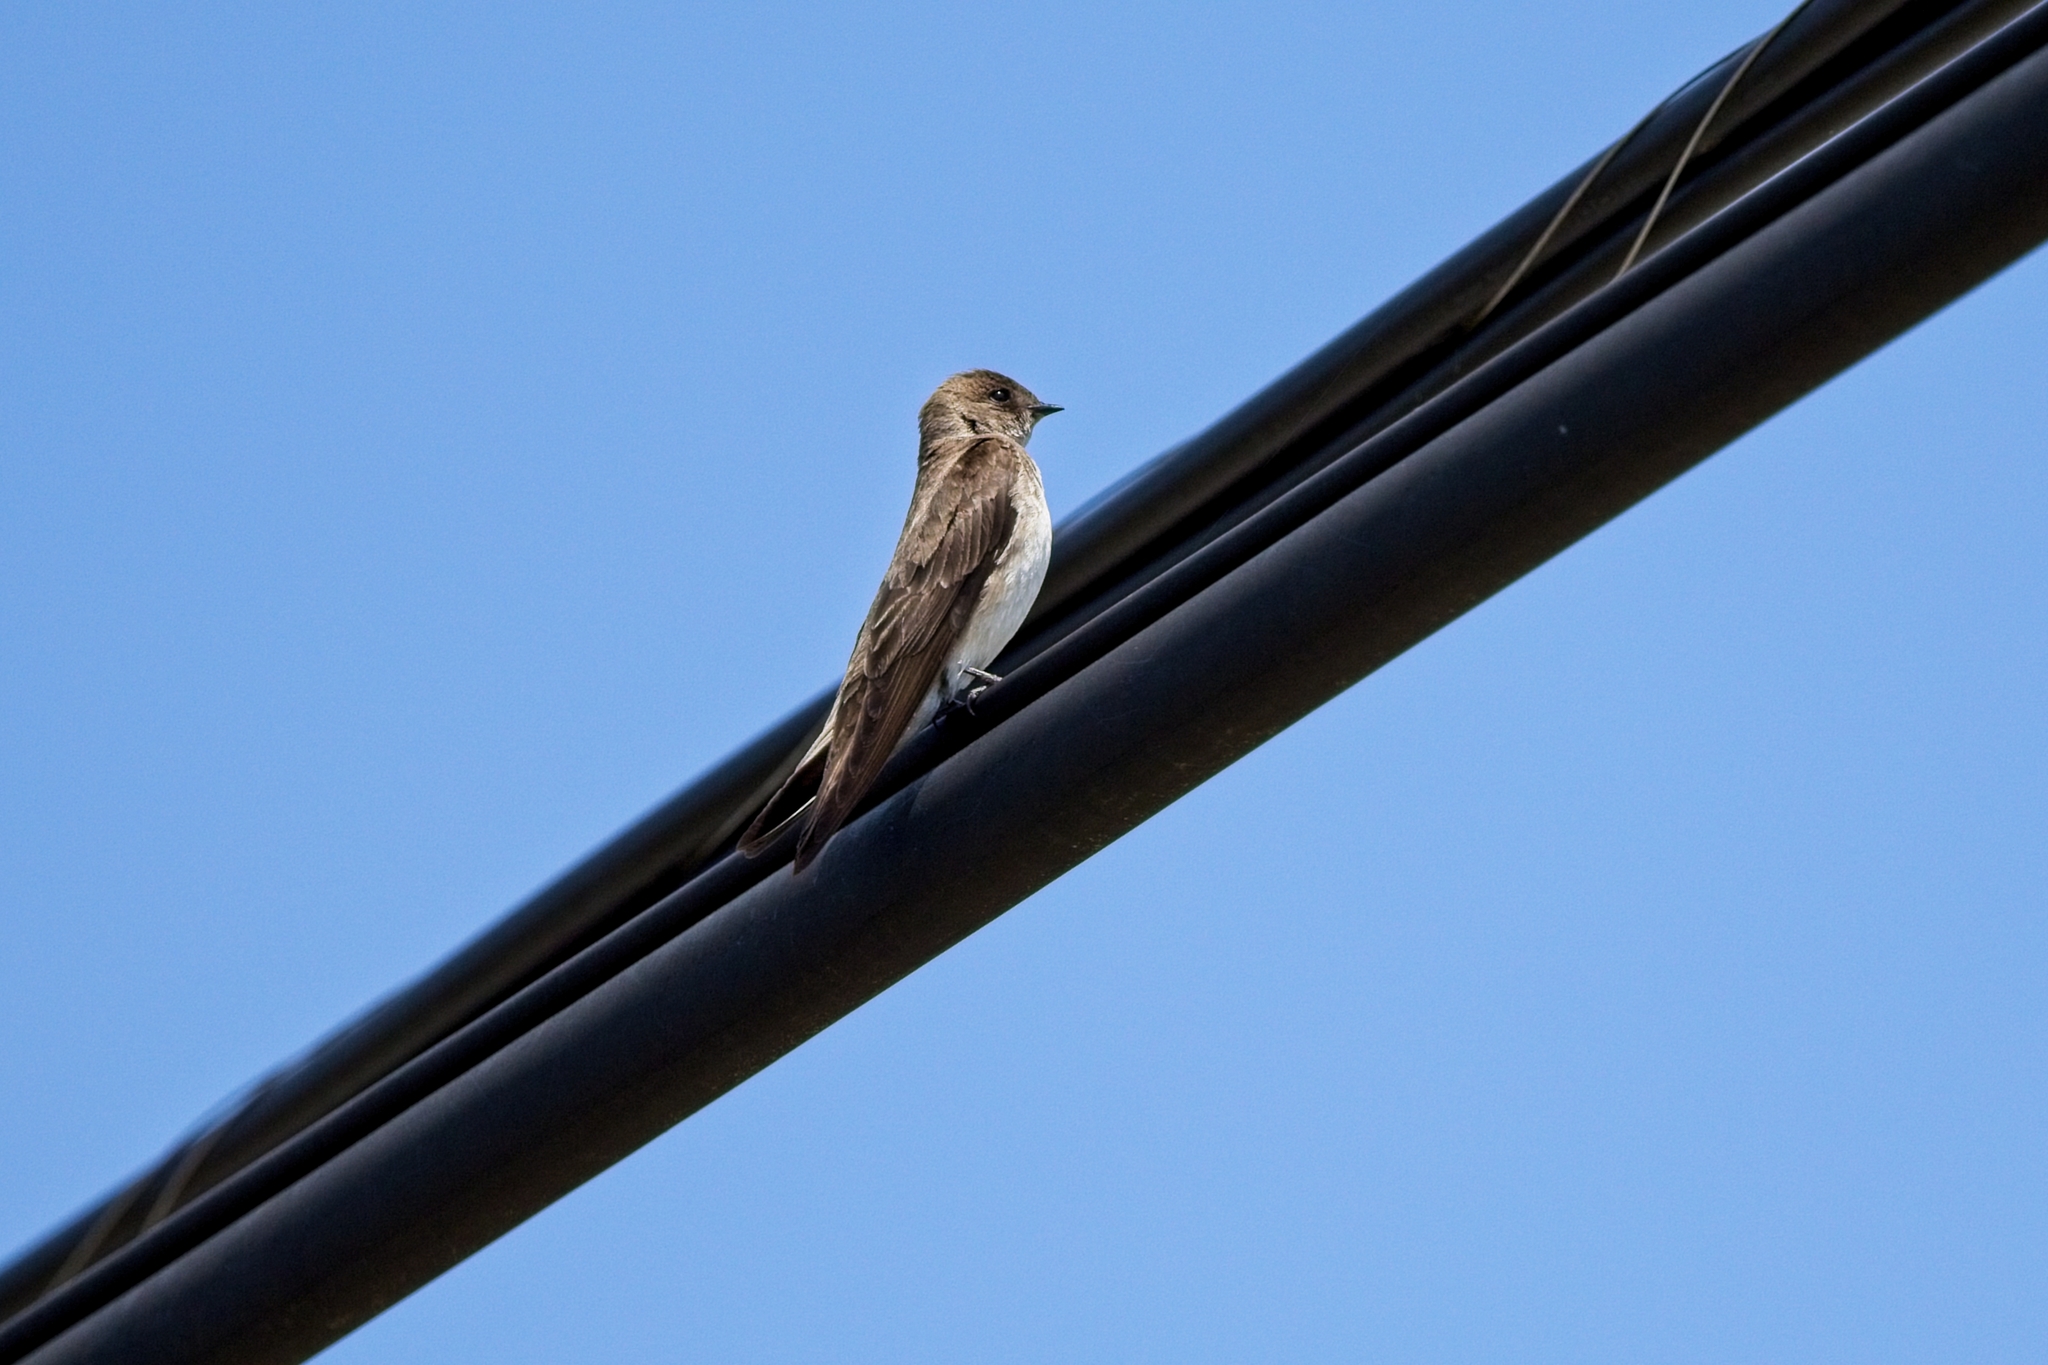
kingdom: Animalia
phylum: Chordata
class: Aves
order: Passeriformes
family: Hirundinidae
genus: Stelgidopteryx
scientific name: Stelgidopteryx serripennis
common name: Northern rough-winged swallow
